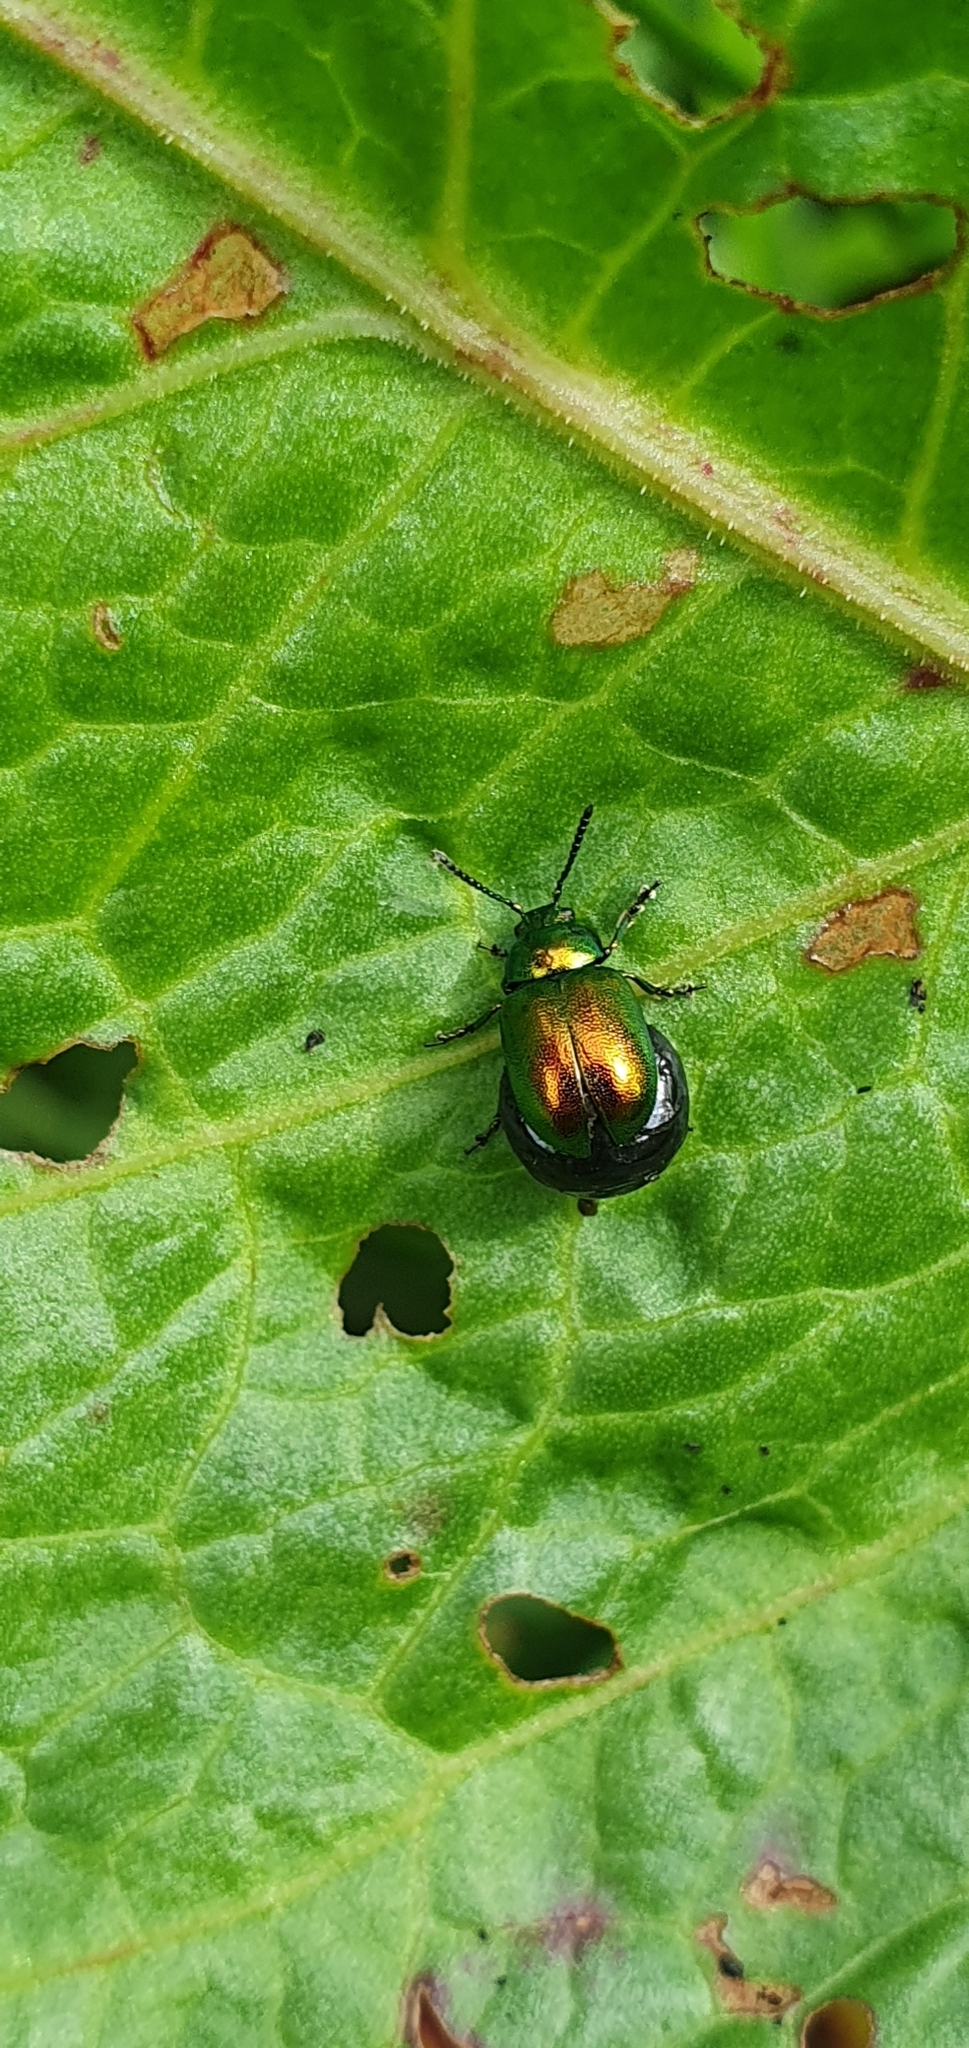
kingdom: Animalia
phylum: Arthropoda
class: Insecta
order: Coleoptera
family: Chrysomelidae
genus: Gastrophysa
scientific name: Gastrophysa viridula
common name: Green dock beetle
